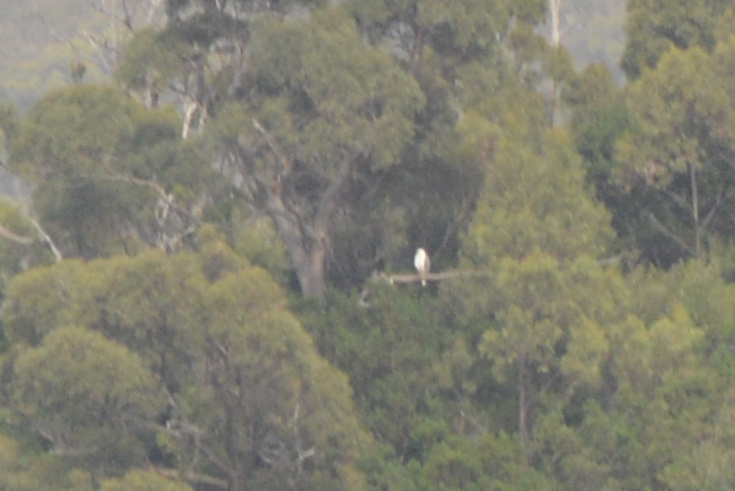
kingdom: Animalia
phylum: Chordata
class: Aves
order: Accipitriformes
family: Accipitridae
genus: Haliaeetus
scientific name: Haliaeetus leucogaster
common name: White-bellied sea eagle
